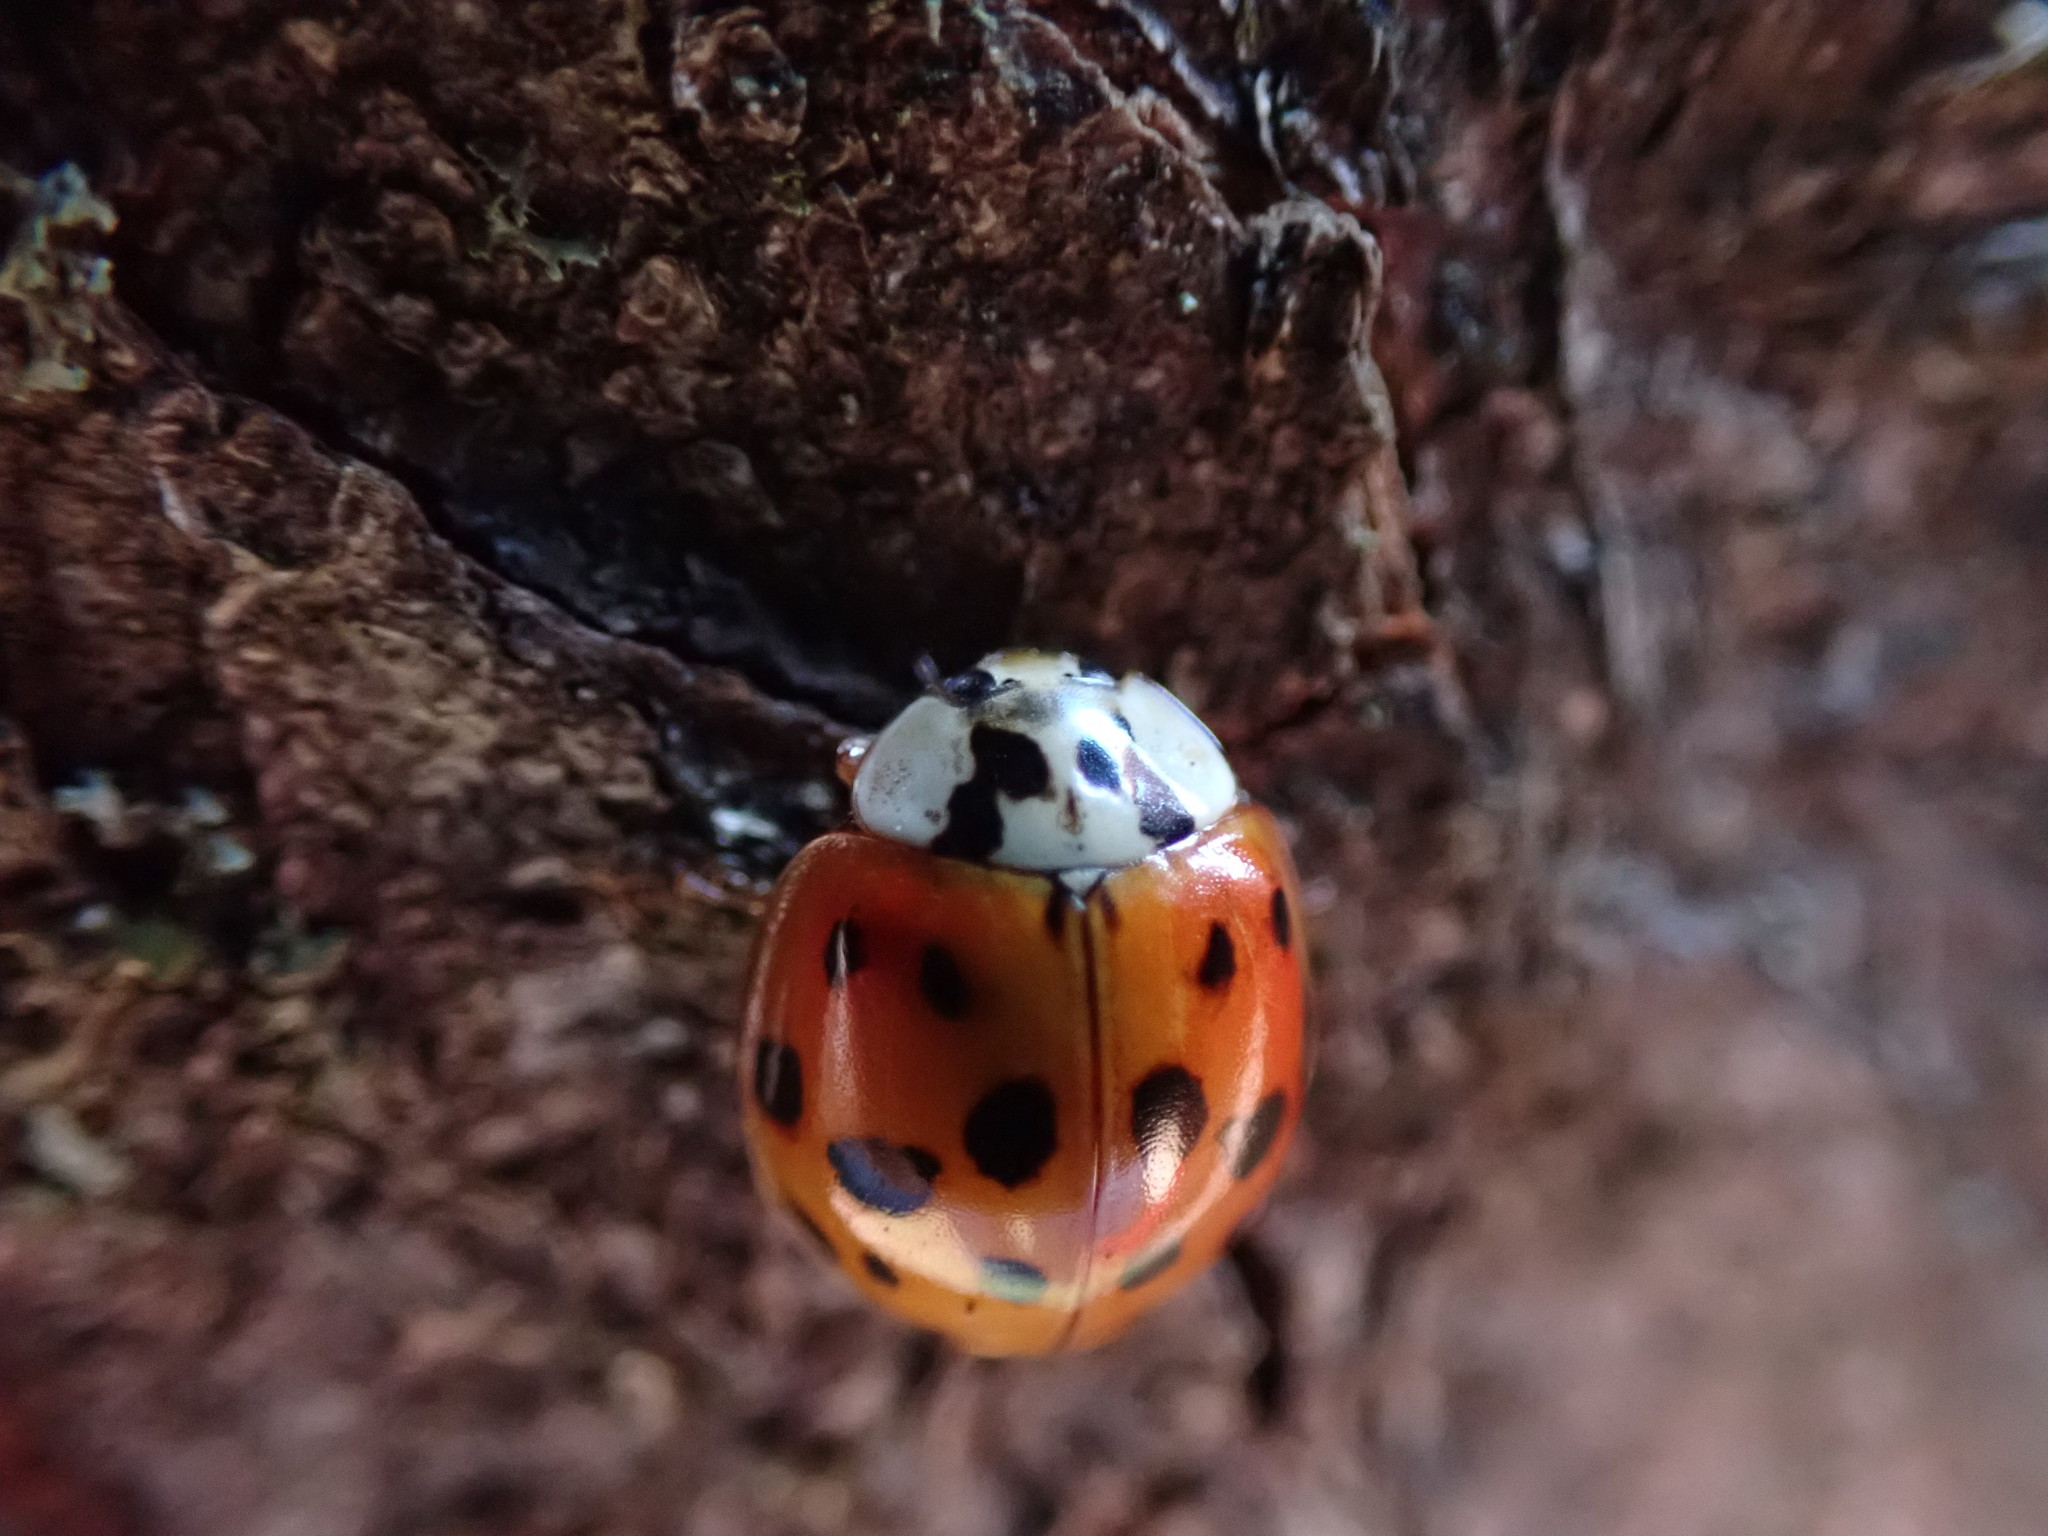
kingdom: Animalia
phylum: Arthropoda
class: Insecta
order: Coleoptera
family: Coccinellidae
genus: Harmonia
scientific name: Harmonia axyridis
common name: Harlequin ladybird
